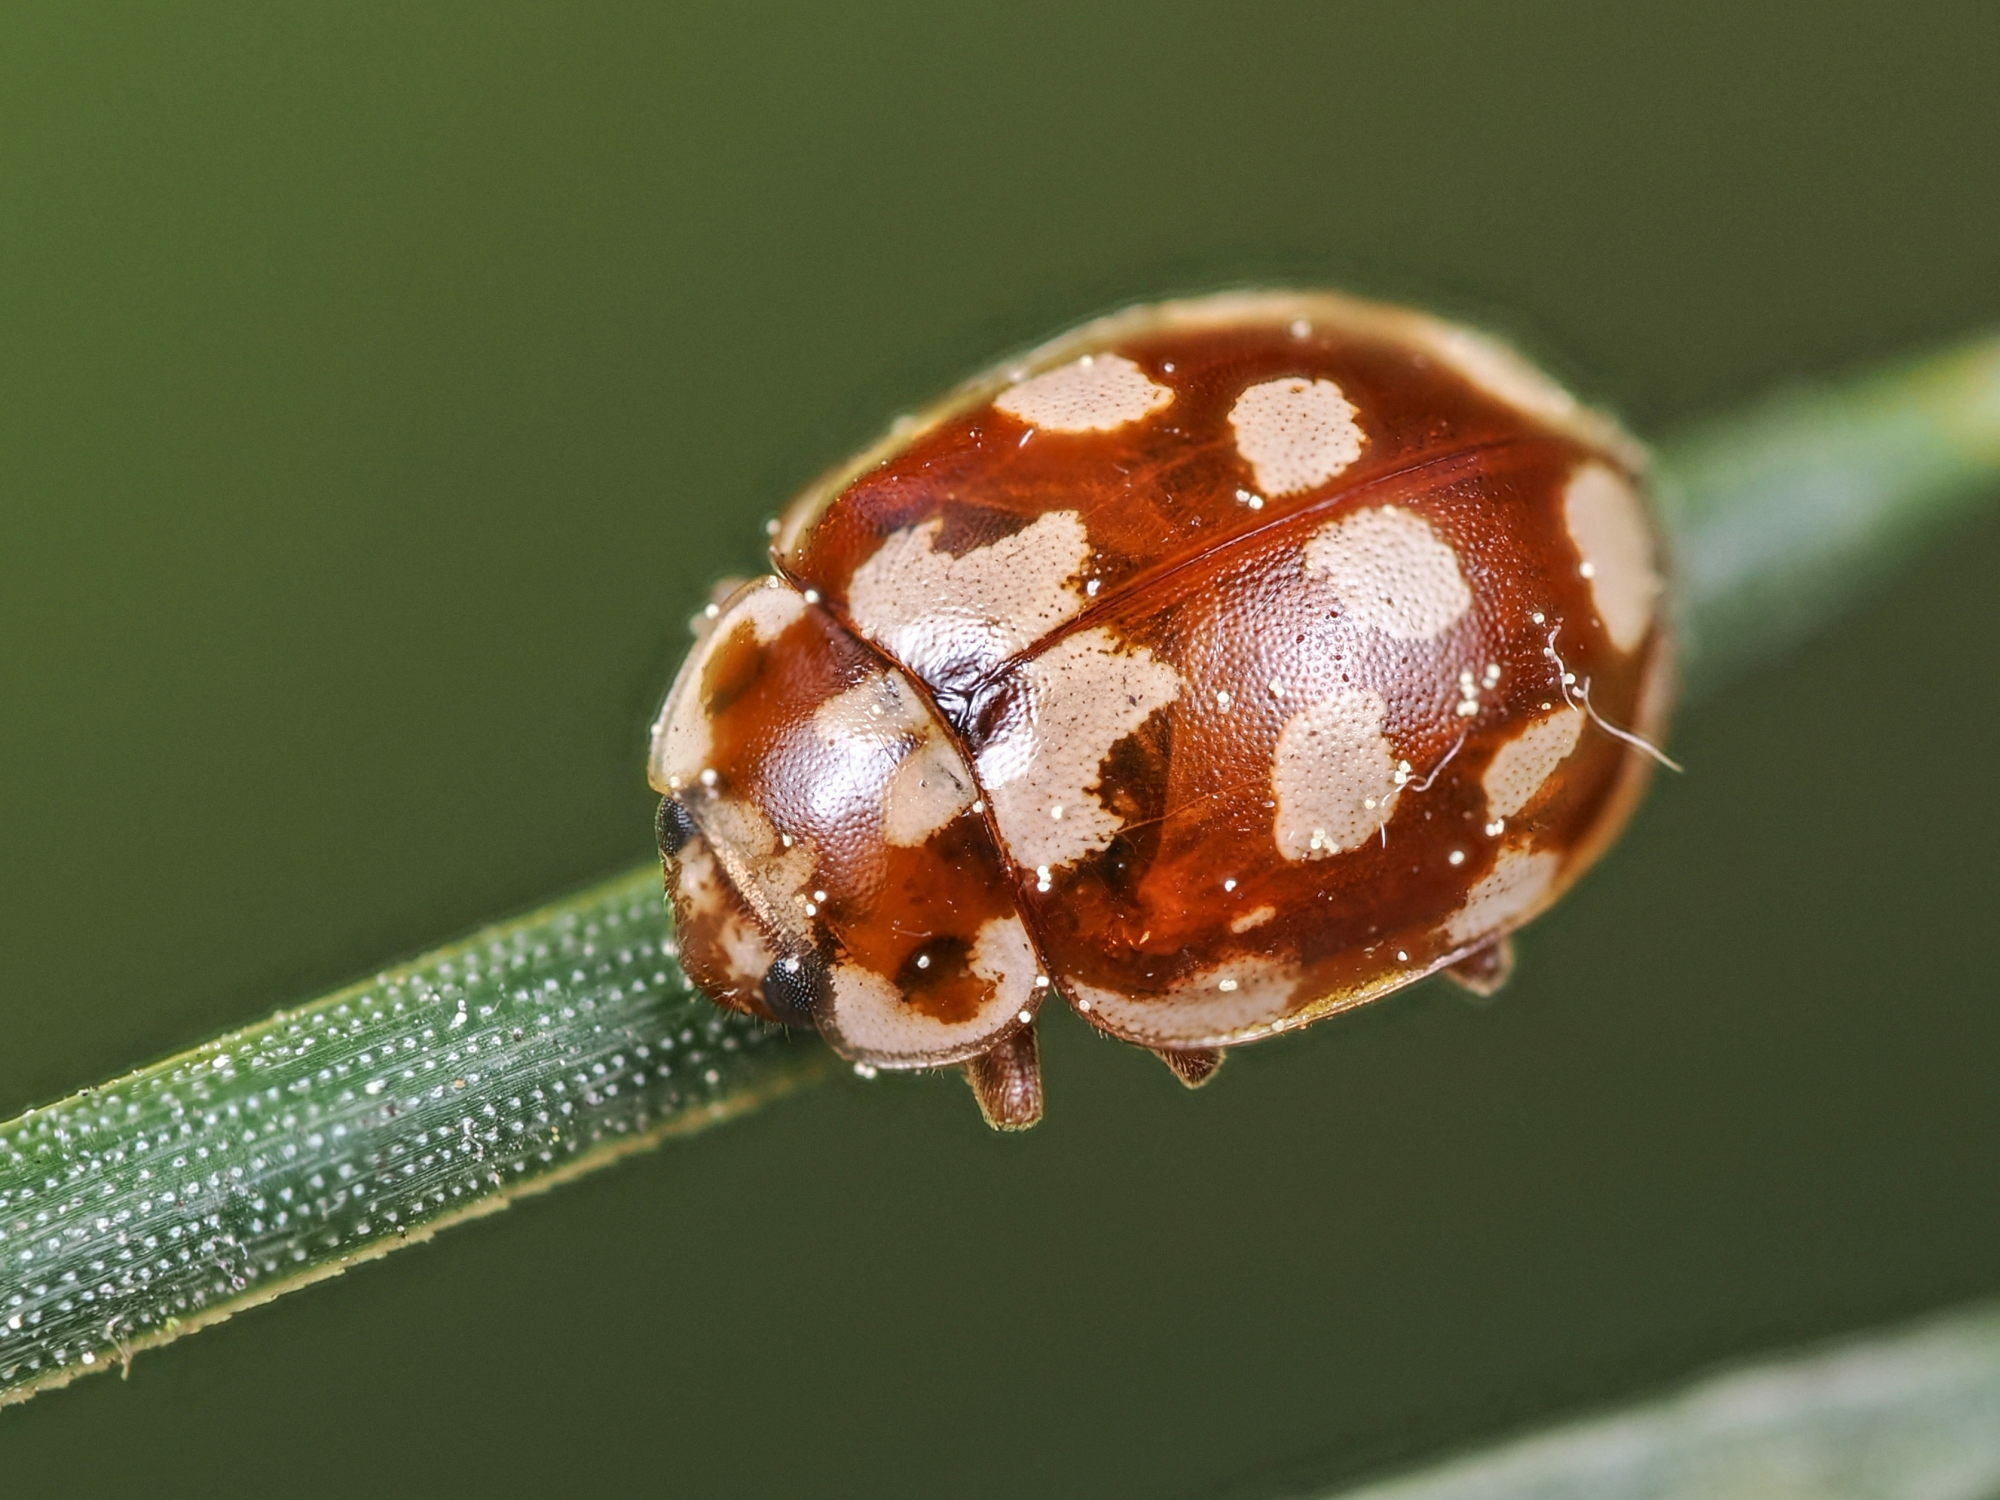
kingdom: Animalia
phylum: Arthropoda
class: Insecta
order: Coleoptera
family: Coccinellidae
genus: Myrrha
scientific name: Myrrha octodecimguttata
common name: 18-spot ladybird
